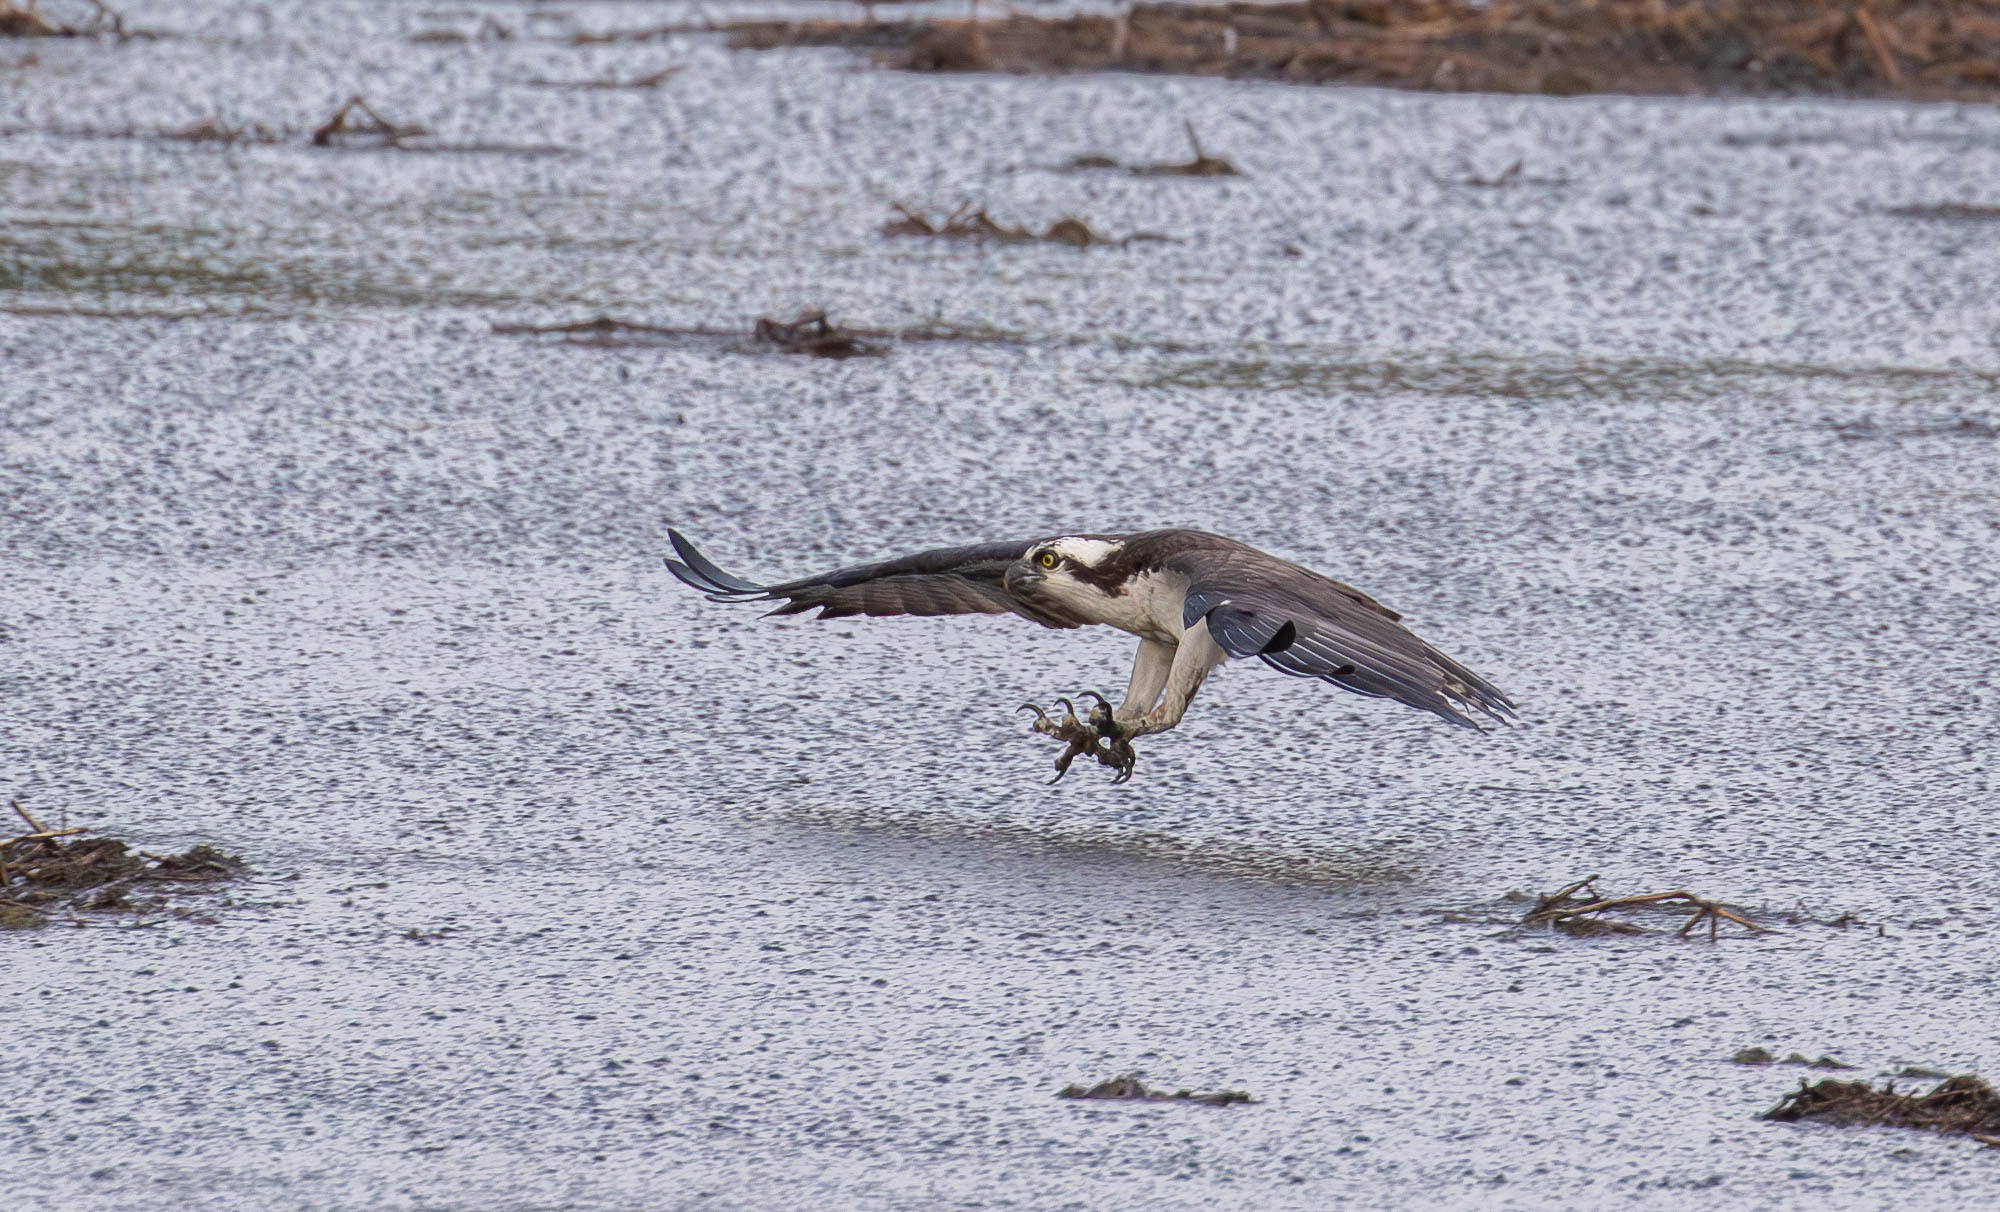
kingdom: Animalia
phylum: Chordata
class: Aves
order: Accipitriformes
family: Pandionidae
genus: Pandion
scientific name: Pandion haliaetus
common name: Osprey
